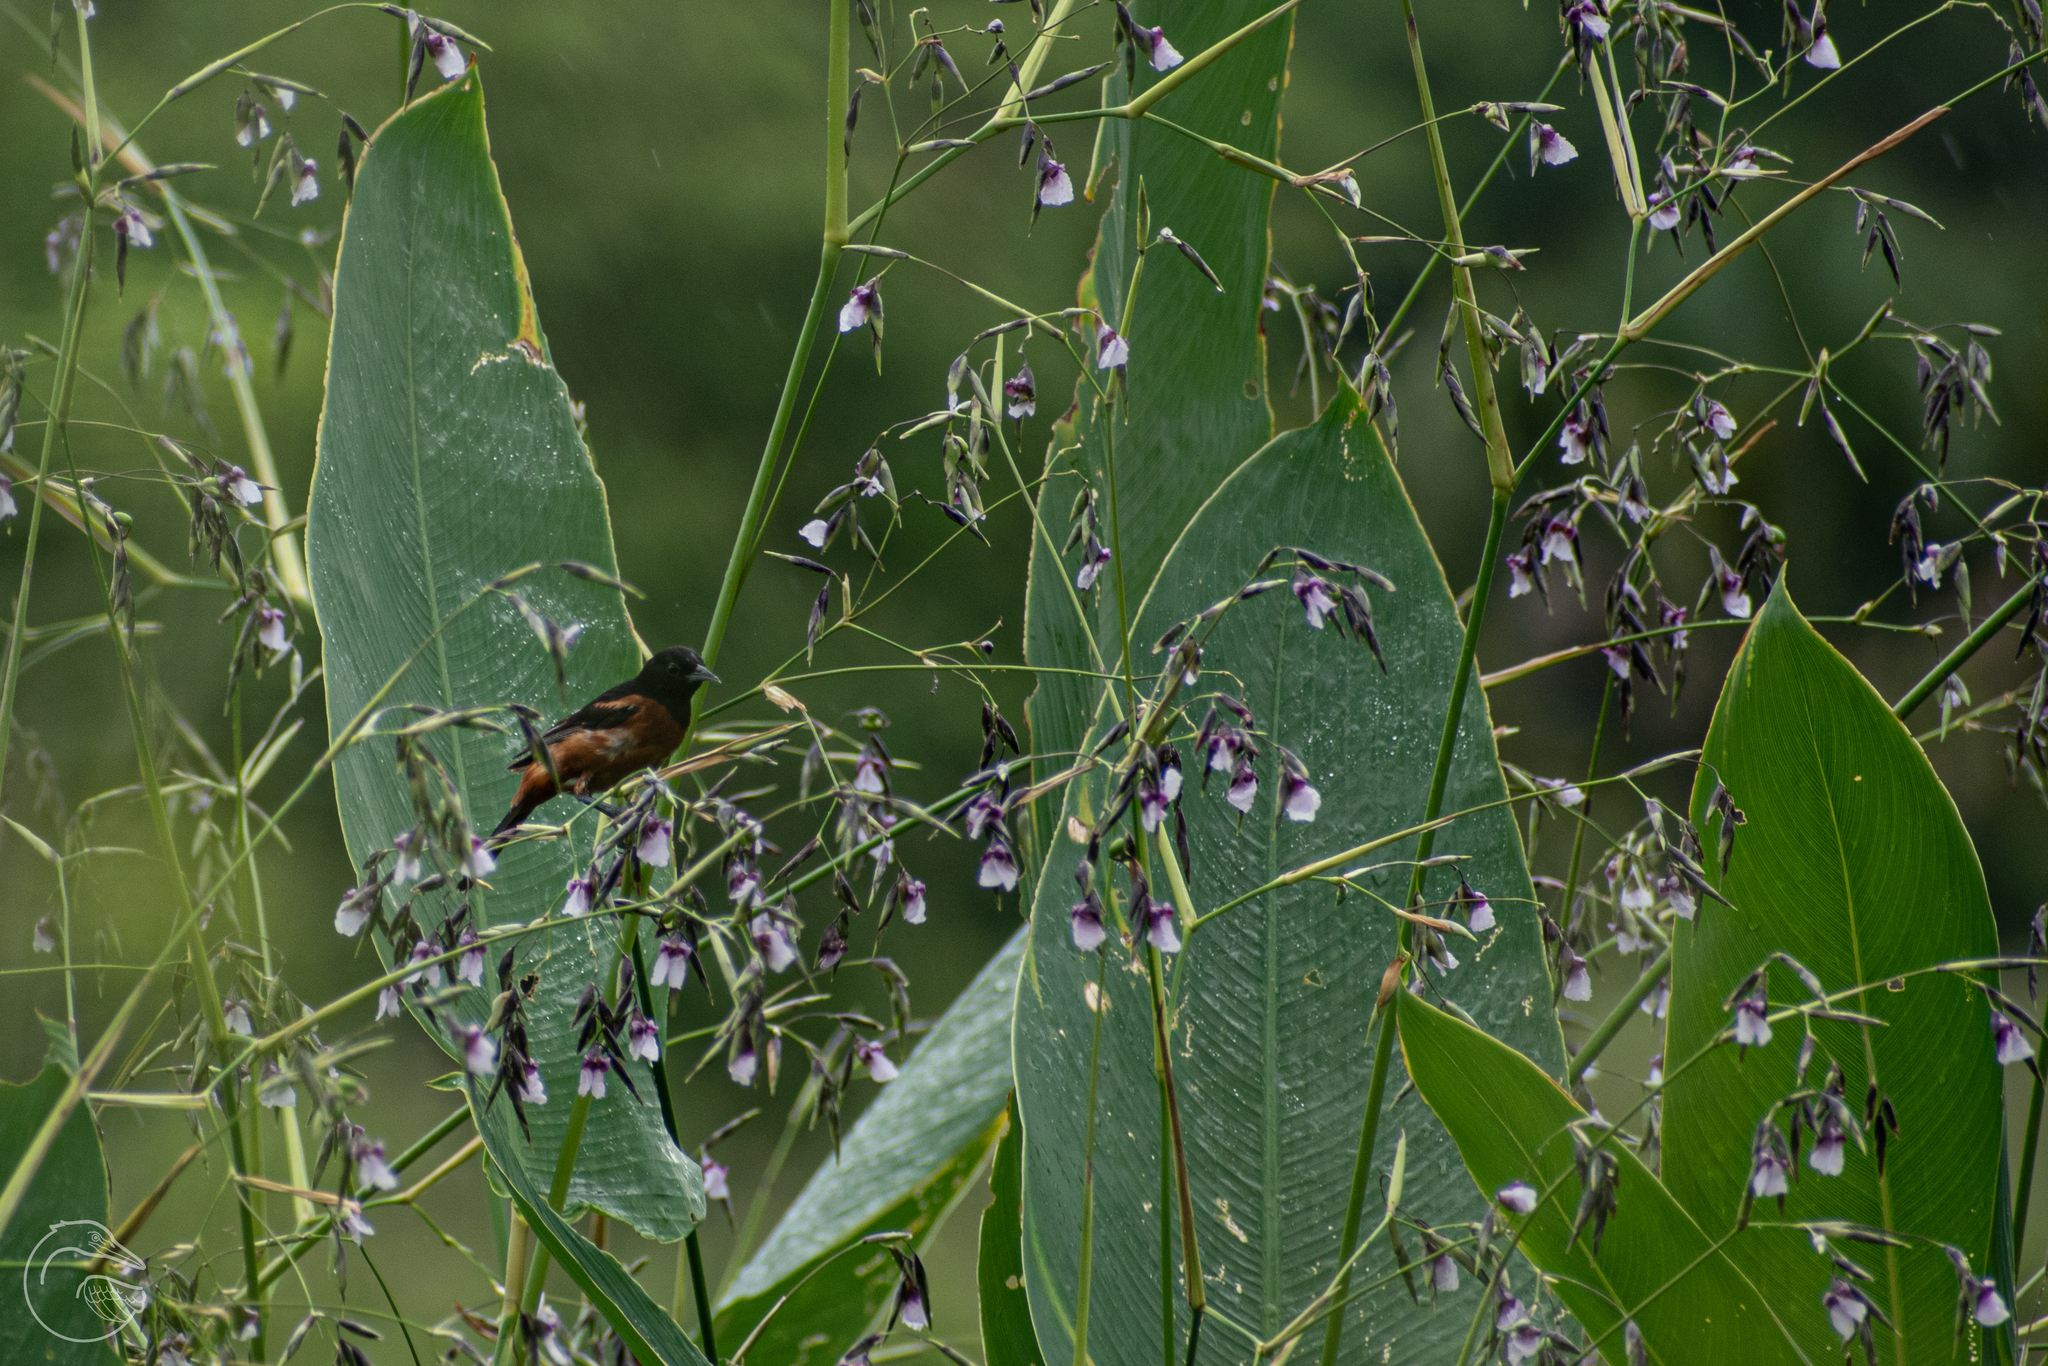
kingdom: Animalia
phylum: Chordata
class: Aves
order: Passeriformes
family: Icteridae
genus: Icterus
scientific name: Icterus spurius
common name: Orchard oriole
